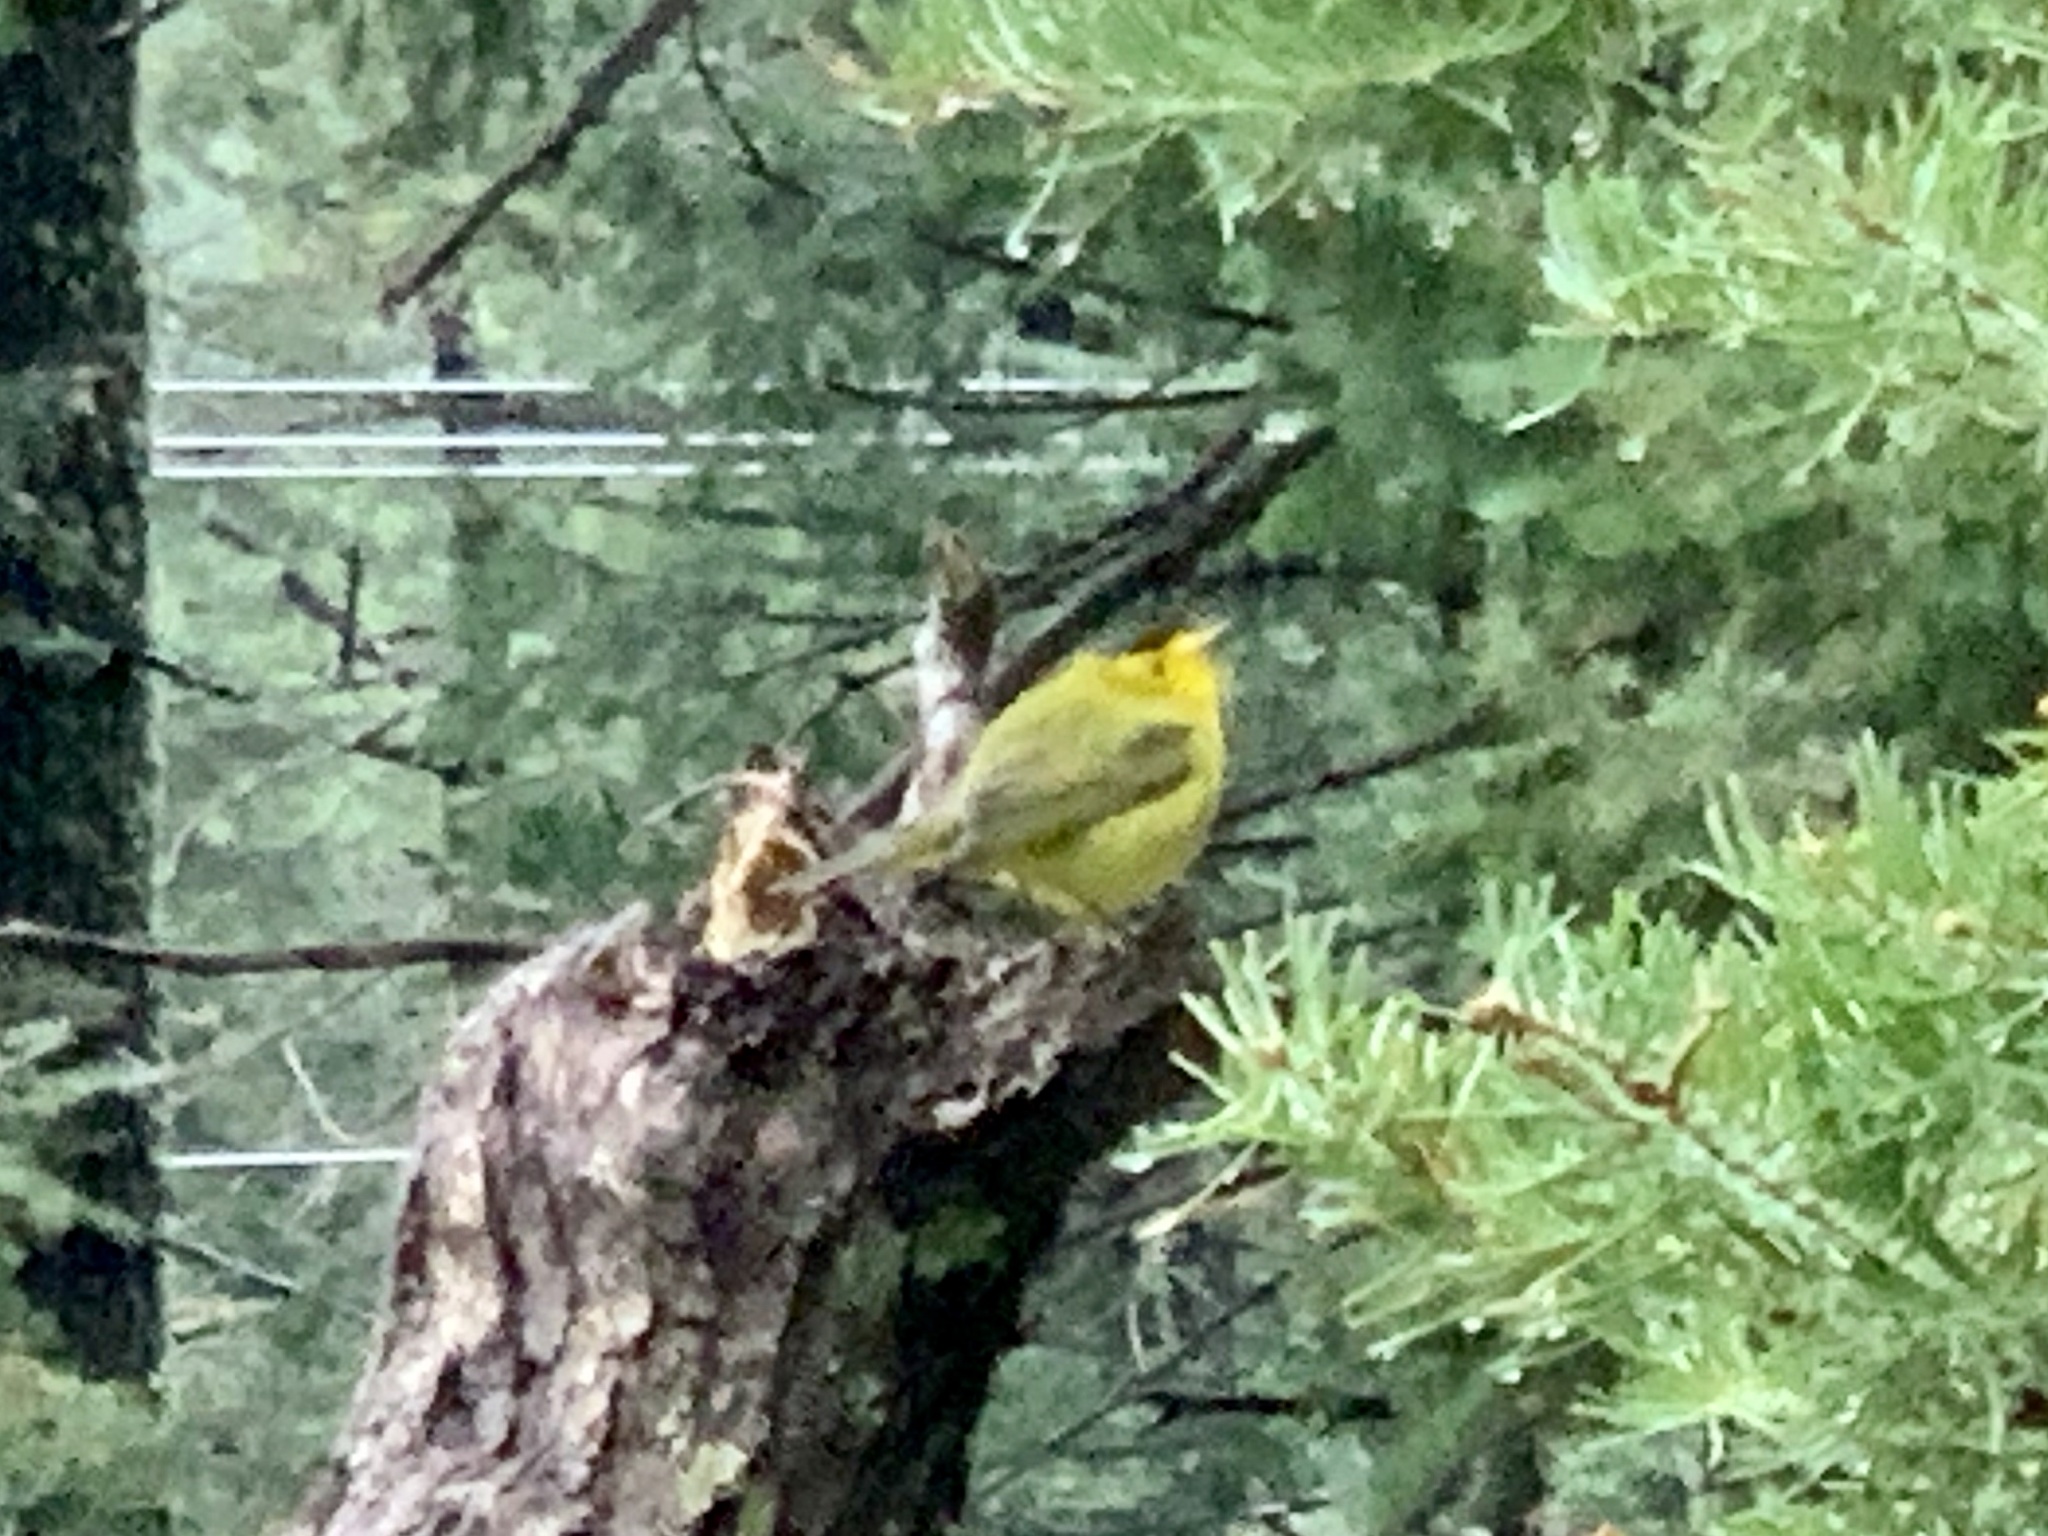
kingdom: Animalia
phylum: Chordata
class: Aves
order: Passeriformes
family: Parulidae
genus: Cardellina
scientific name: Cardellina pusilla
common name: Wilson's warbler
